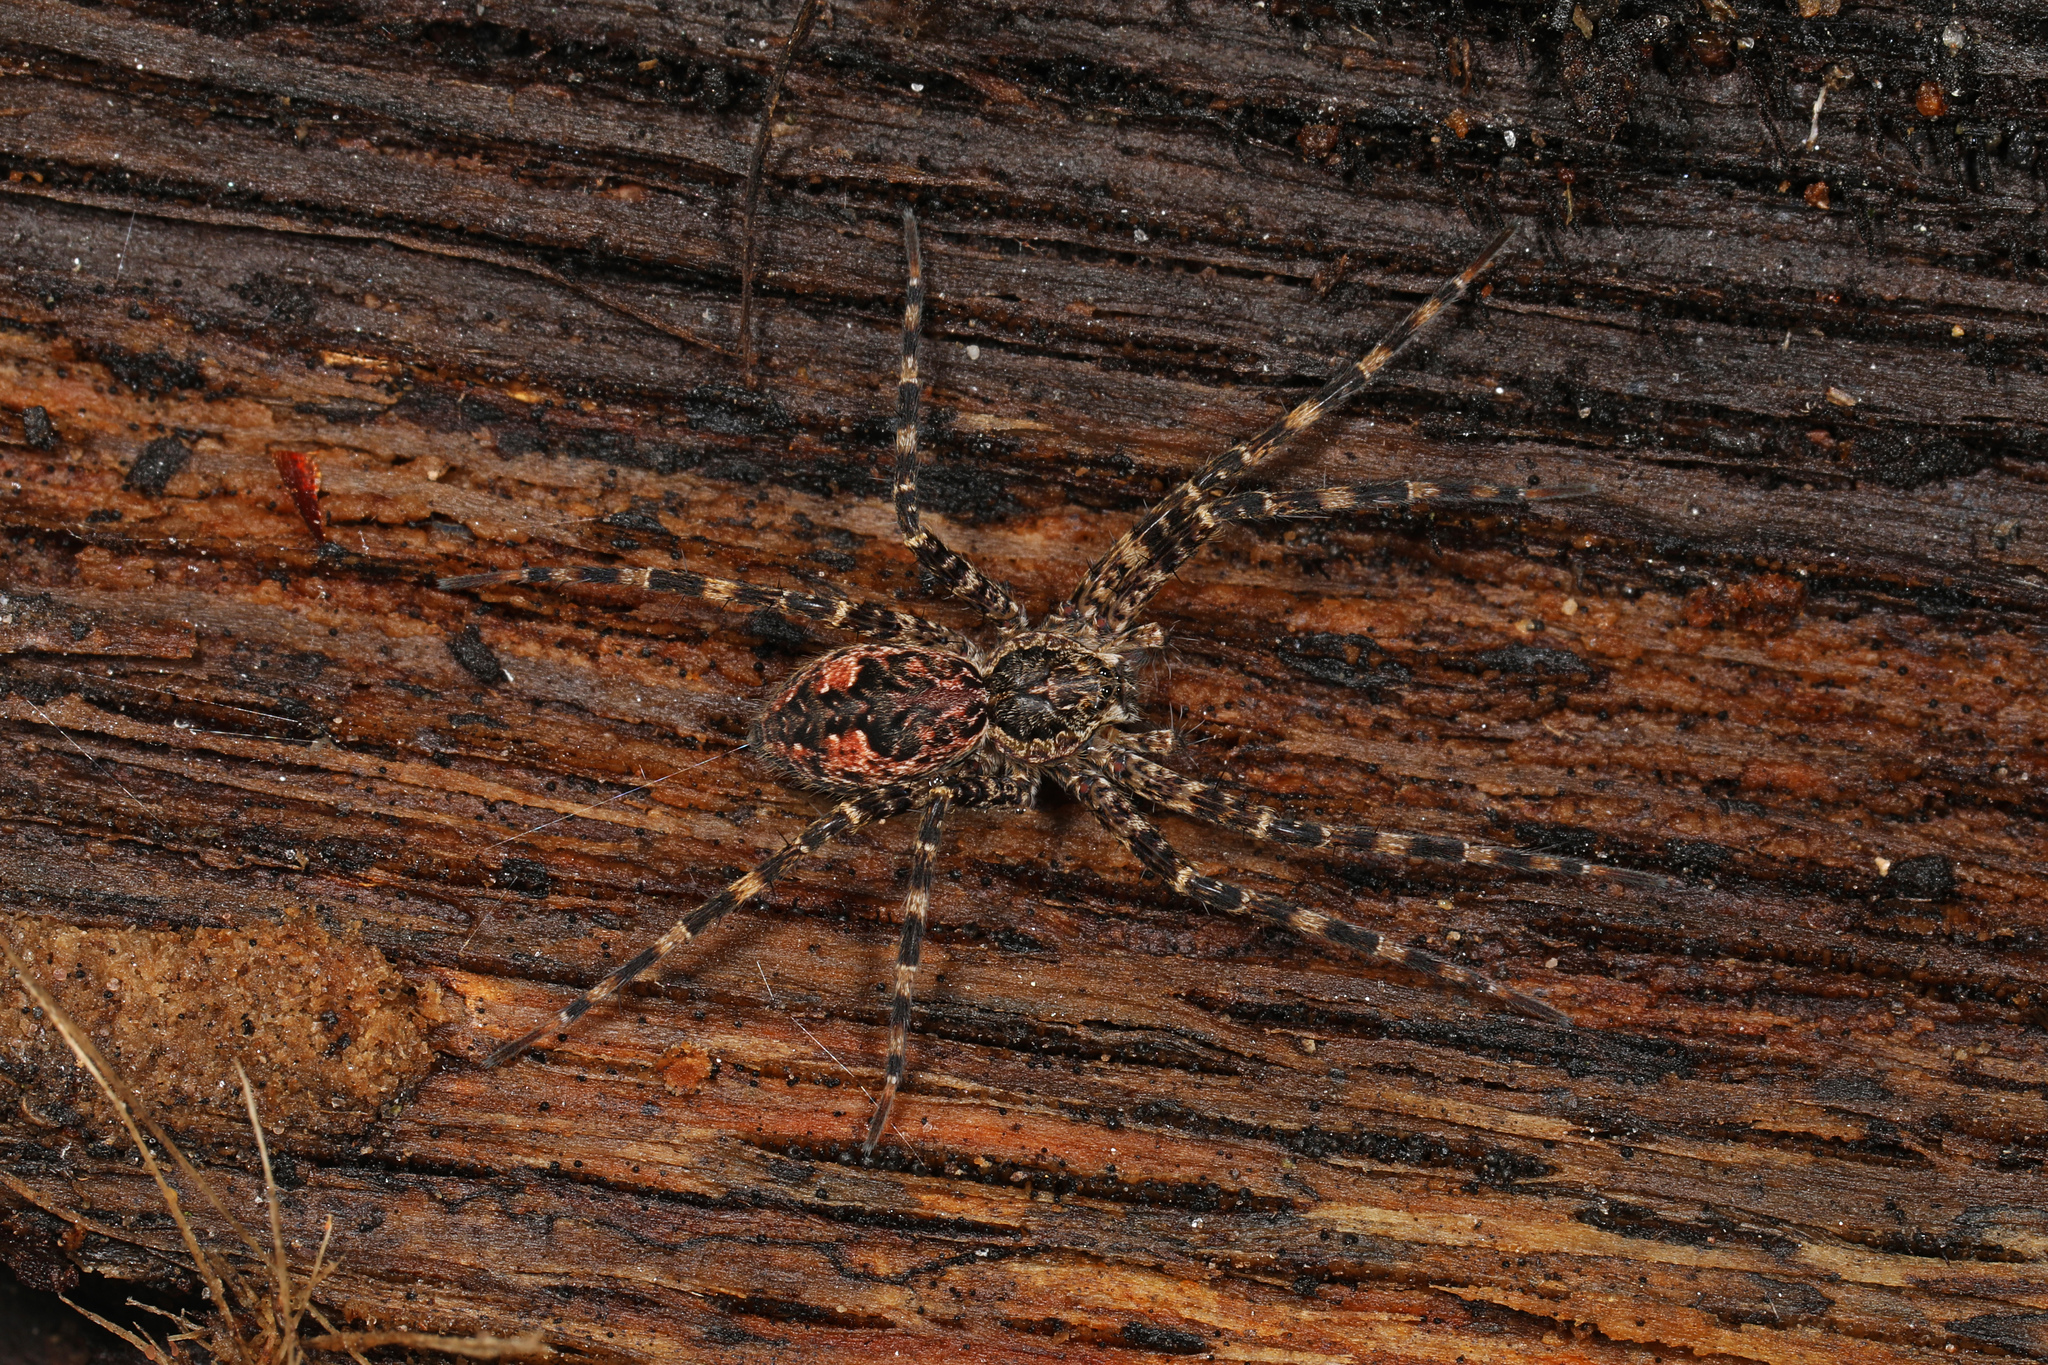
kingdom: Animalia
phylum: Arthropoda
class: Arachnida
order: Araneae
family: Pisauridae
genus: Dolomedes
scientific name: Dolomedes tenebrosus
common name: Dark fishing spider
